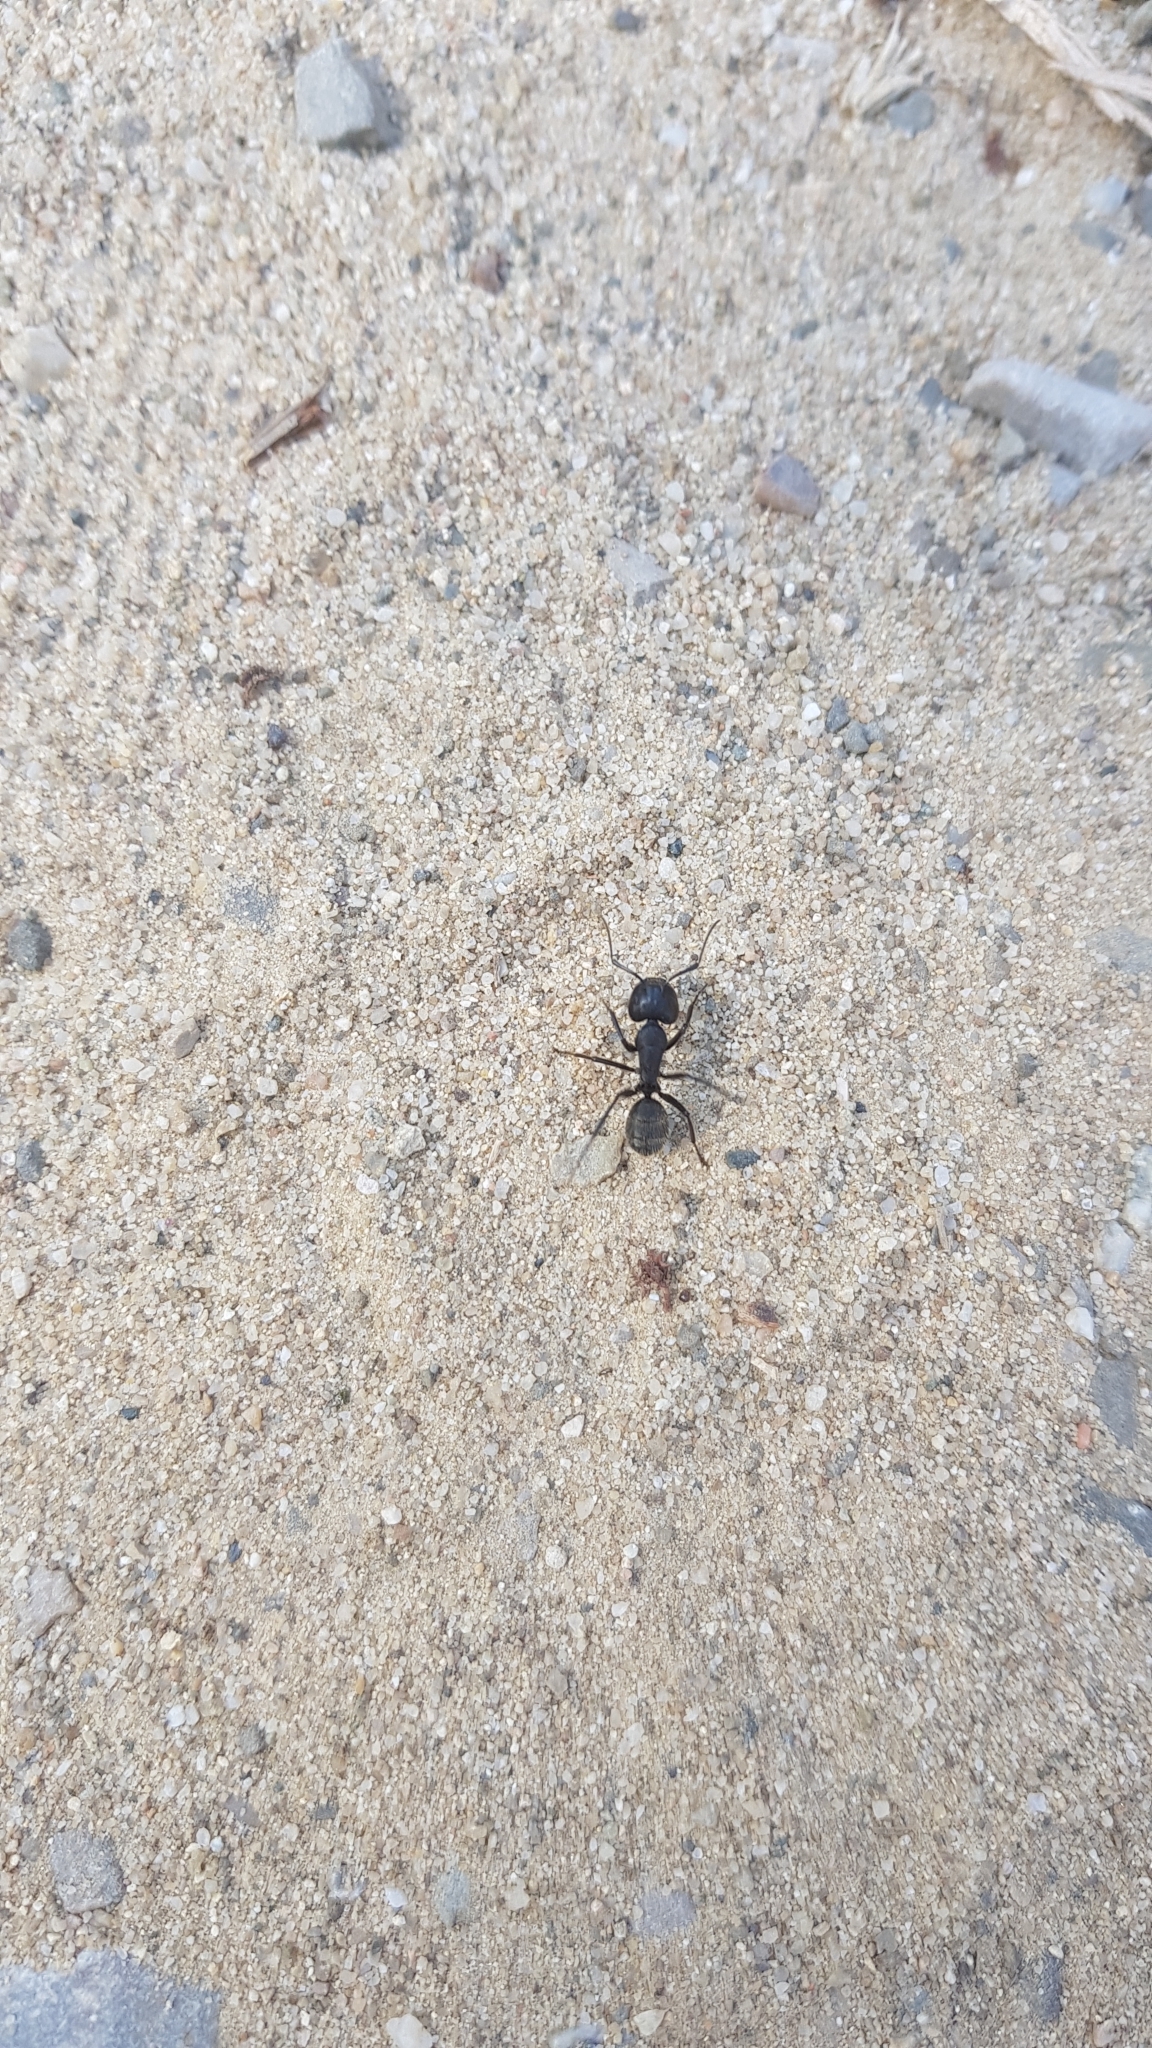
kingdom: Animalia
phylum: Arthropoda
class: Insecta
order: Hymenoptera
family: Formicidae
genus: Camponotus
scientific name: Camponotus vagus
